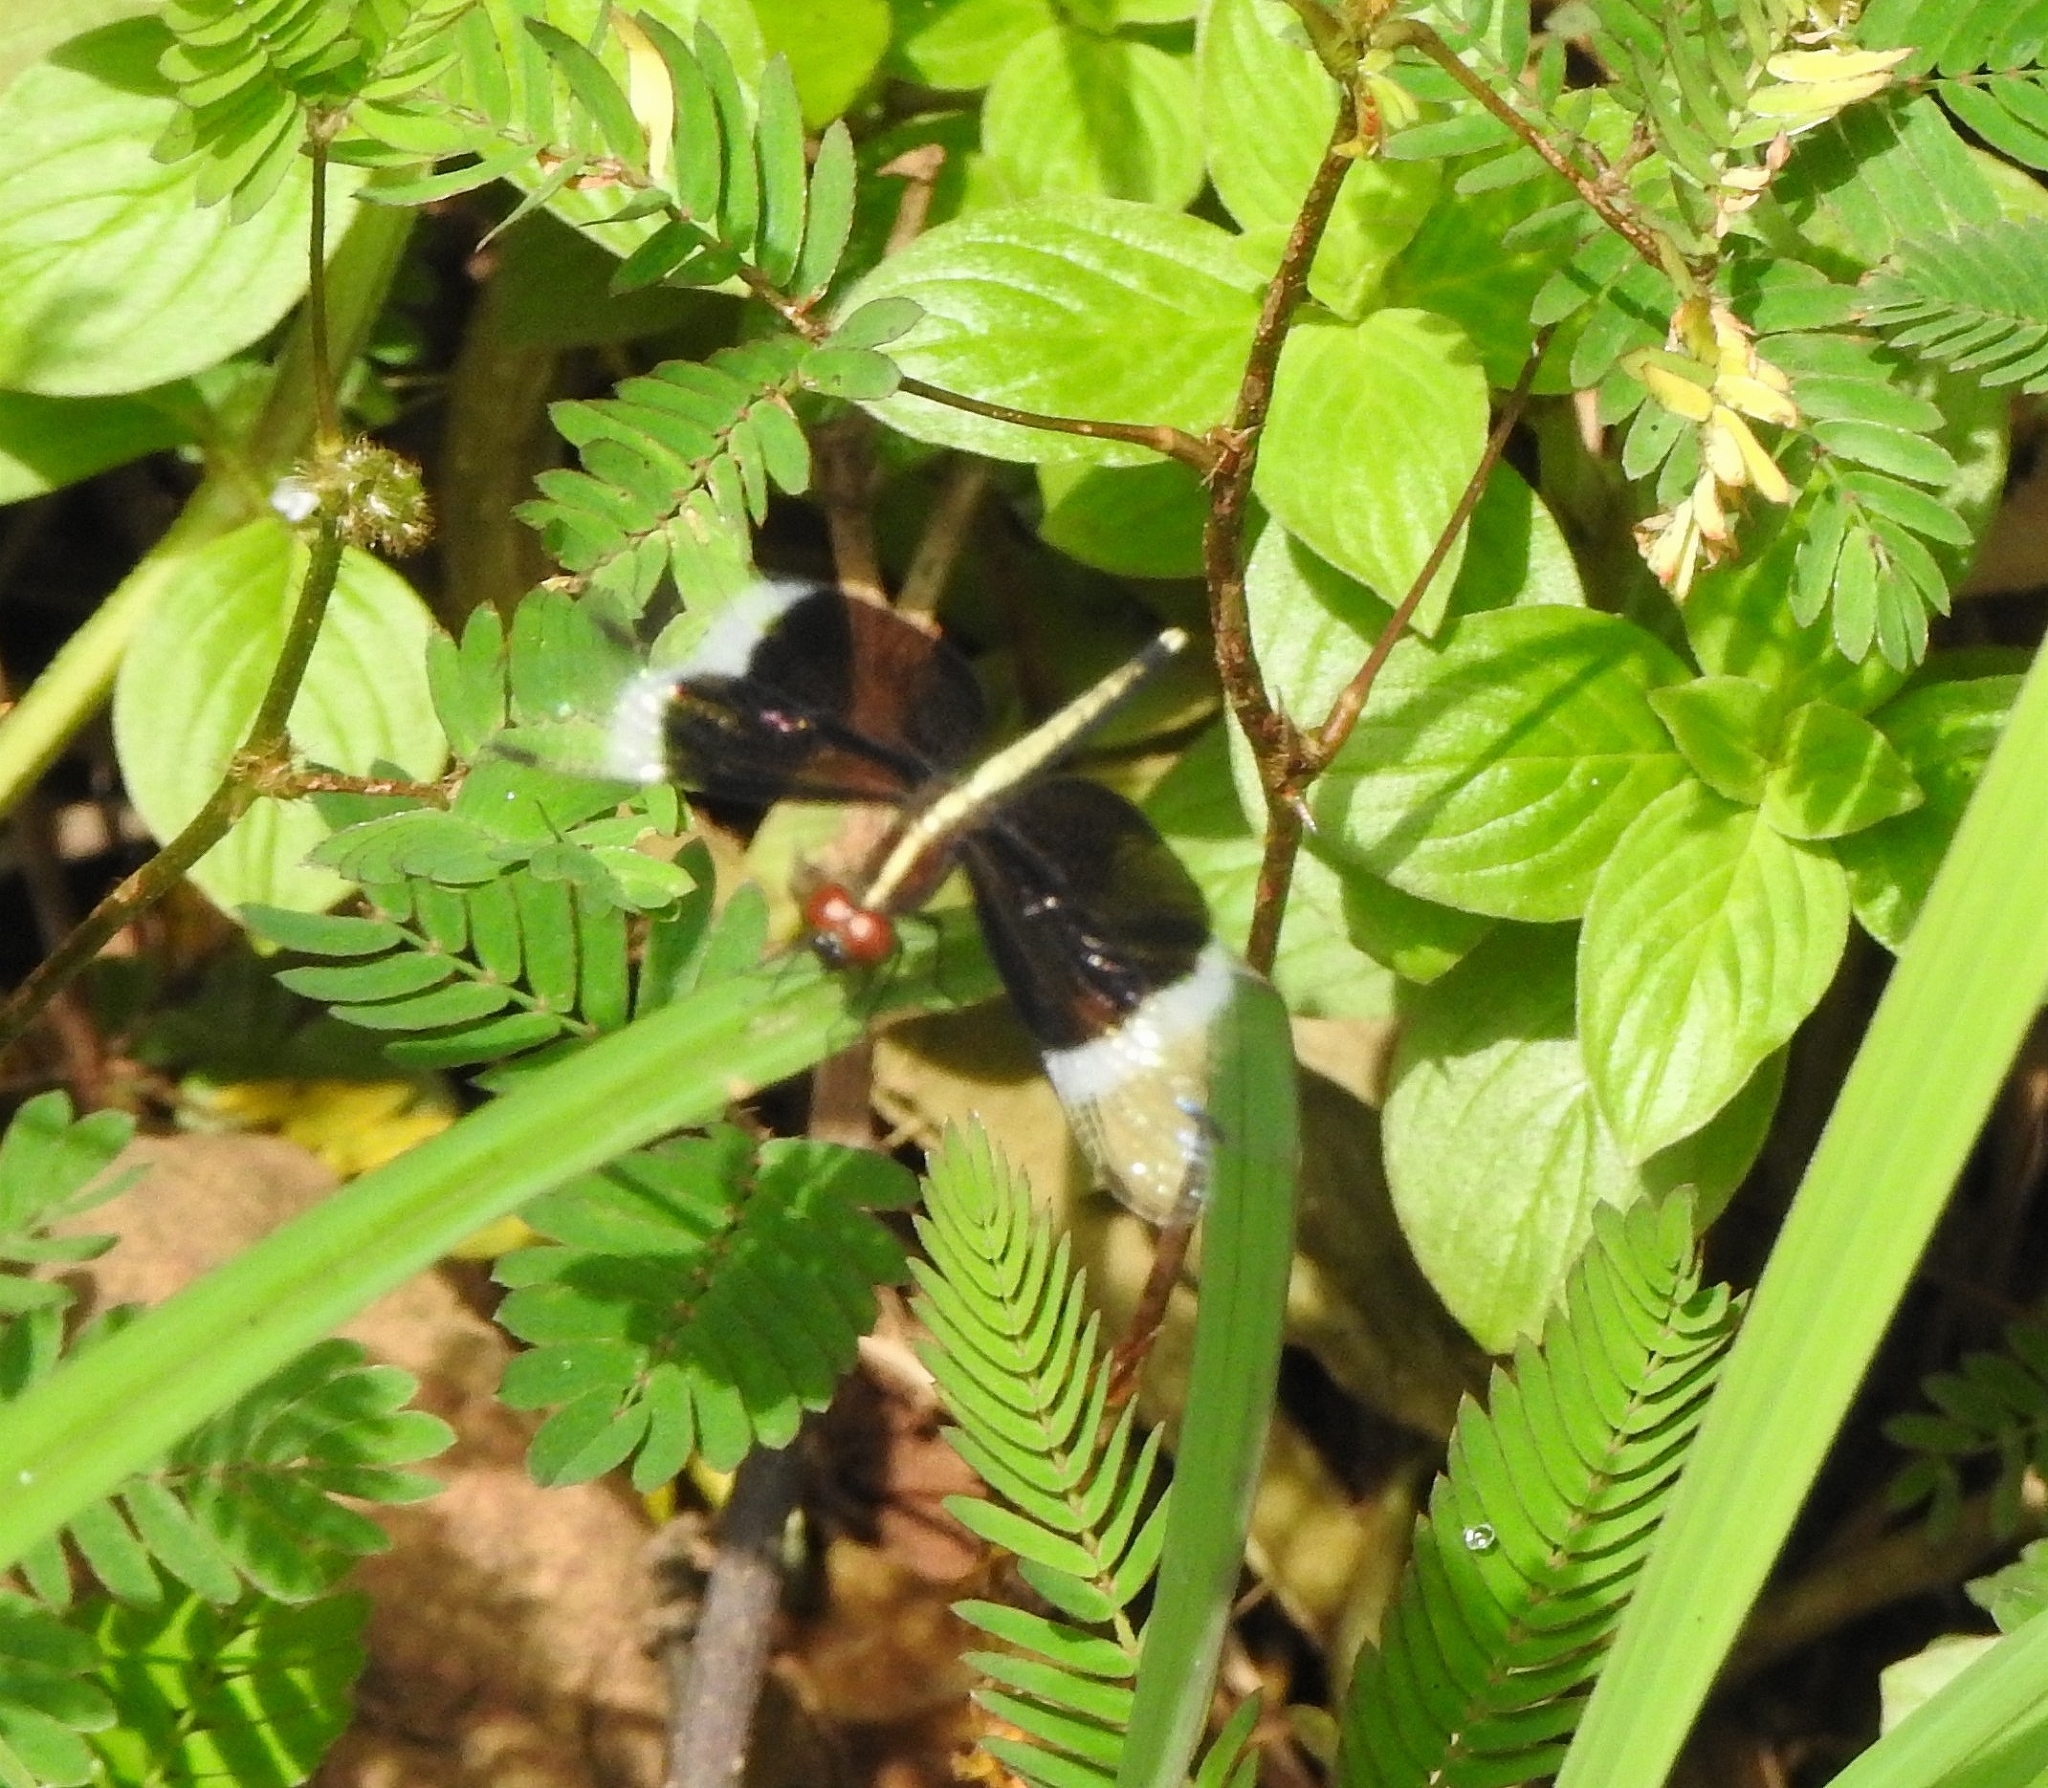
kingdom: Animalia
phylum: Arthropoda
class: Insecta
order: Odonata
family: Libellulidae
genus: Neurothemis
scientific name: Neurothemis tullia
